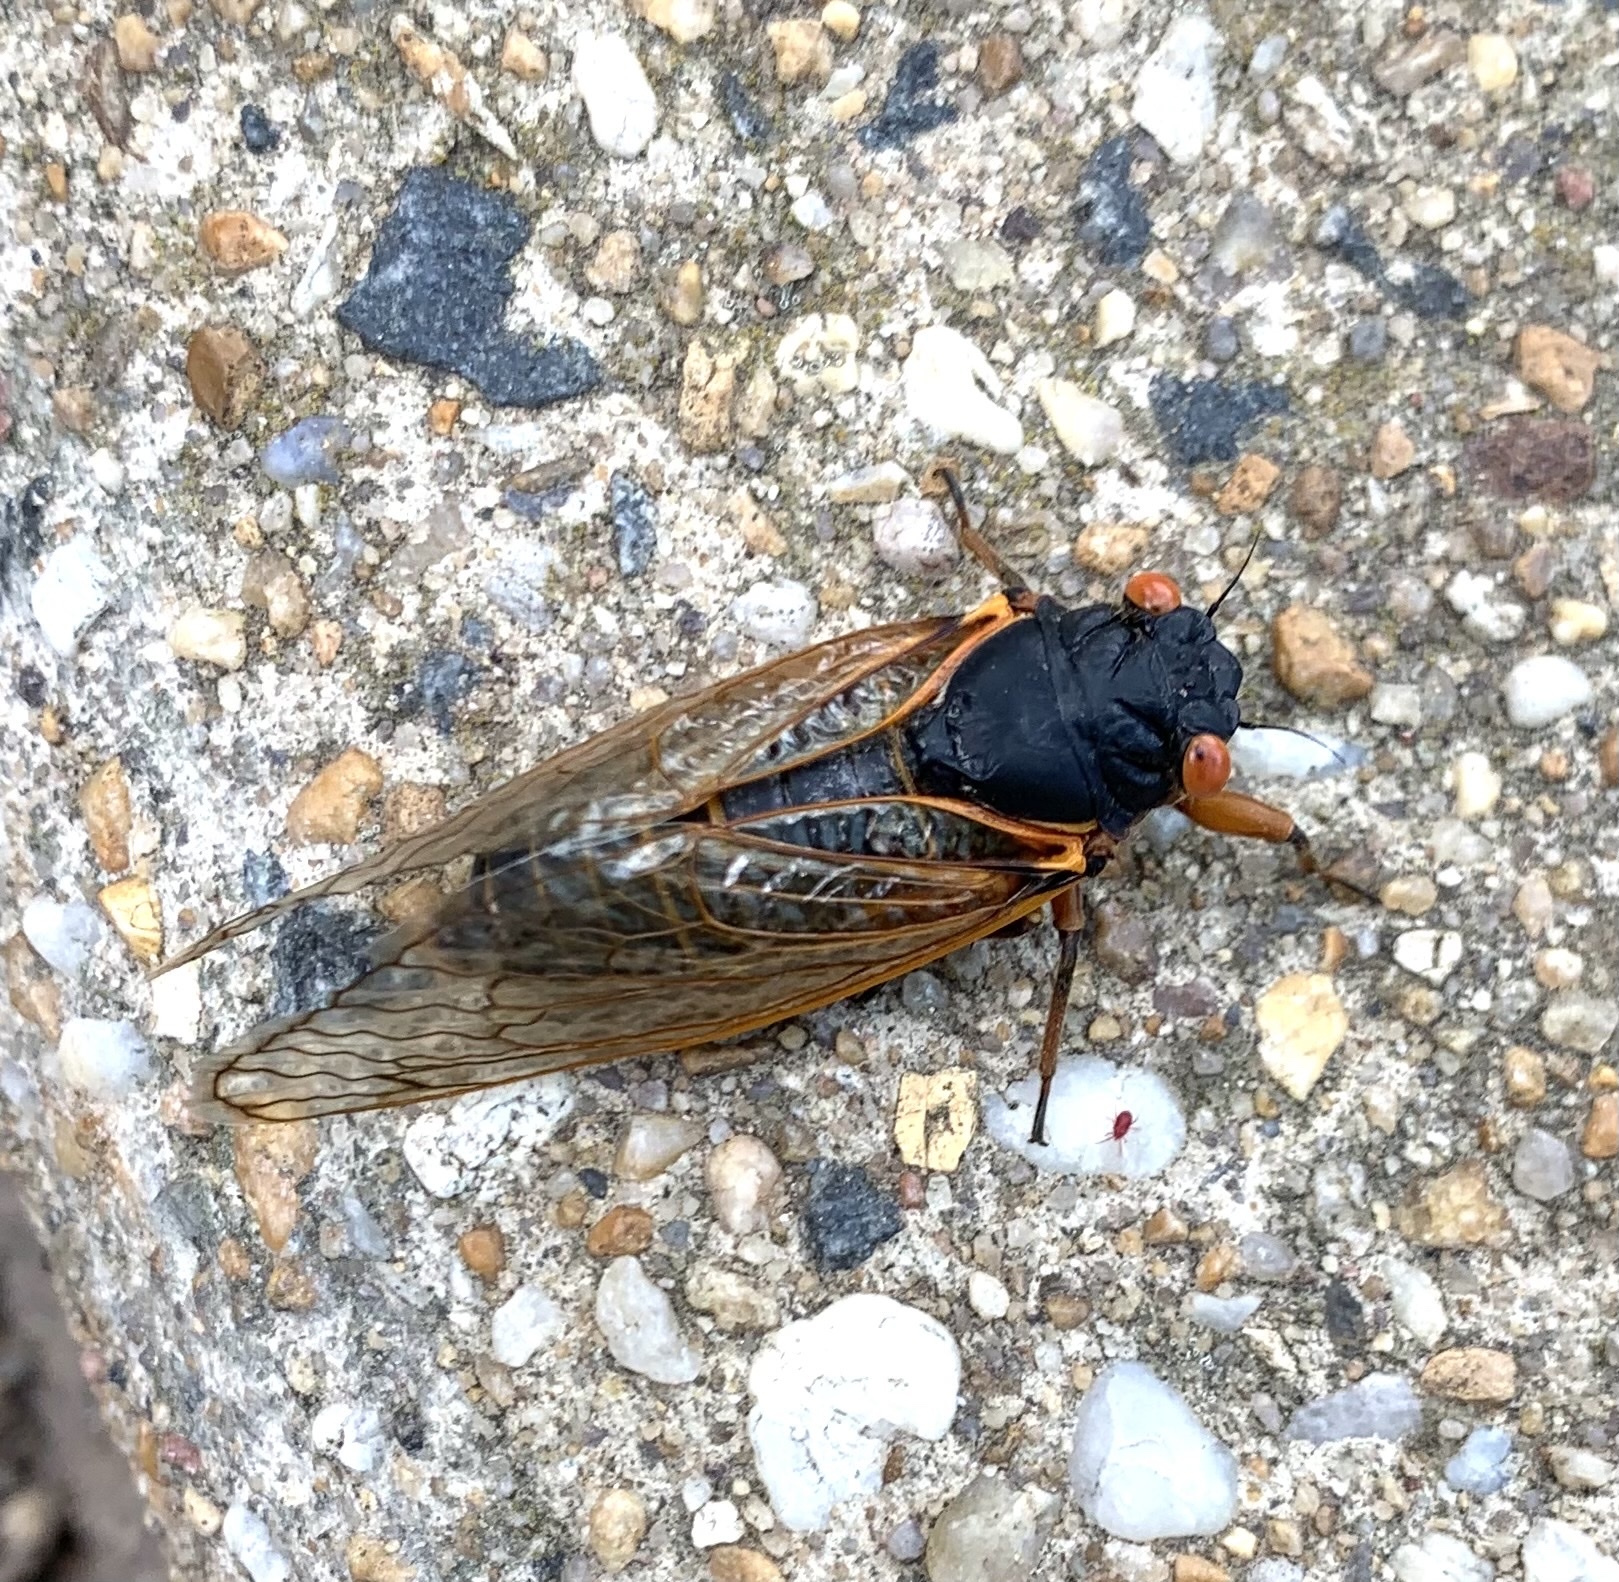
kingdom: Animalia
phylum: Arthropoda
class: Insecta
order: Hemiptera
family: Cicadidae
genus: Magicicada
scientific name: Magicicada cassini
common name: Cassin's 17-year cicada
